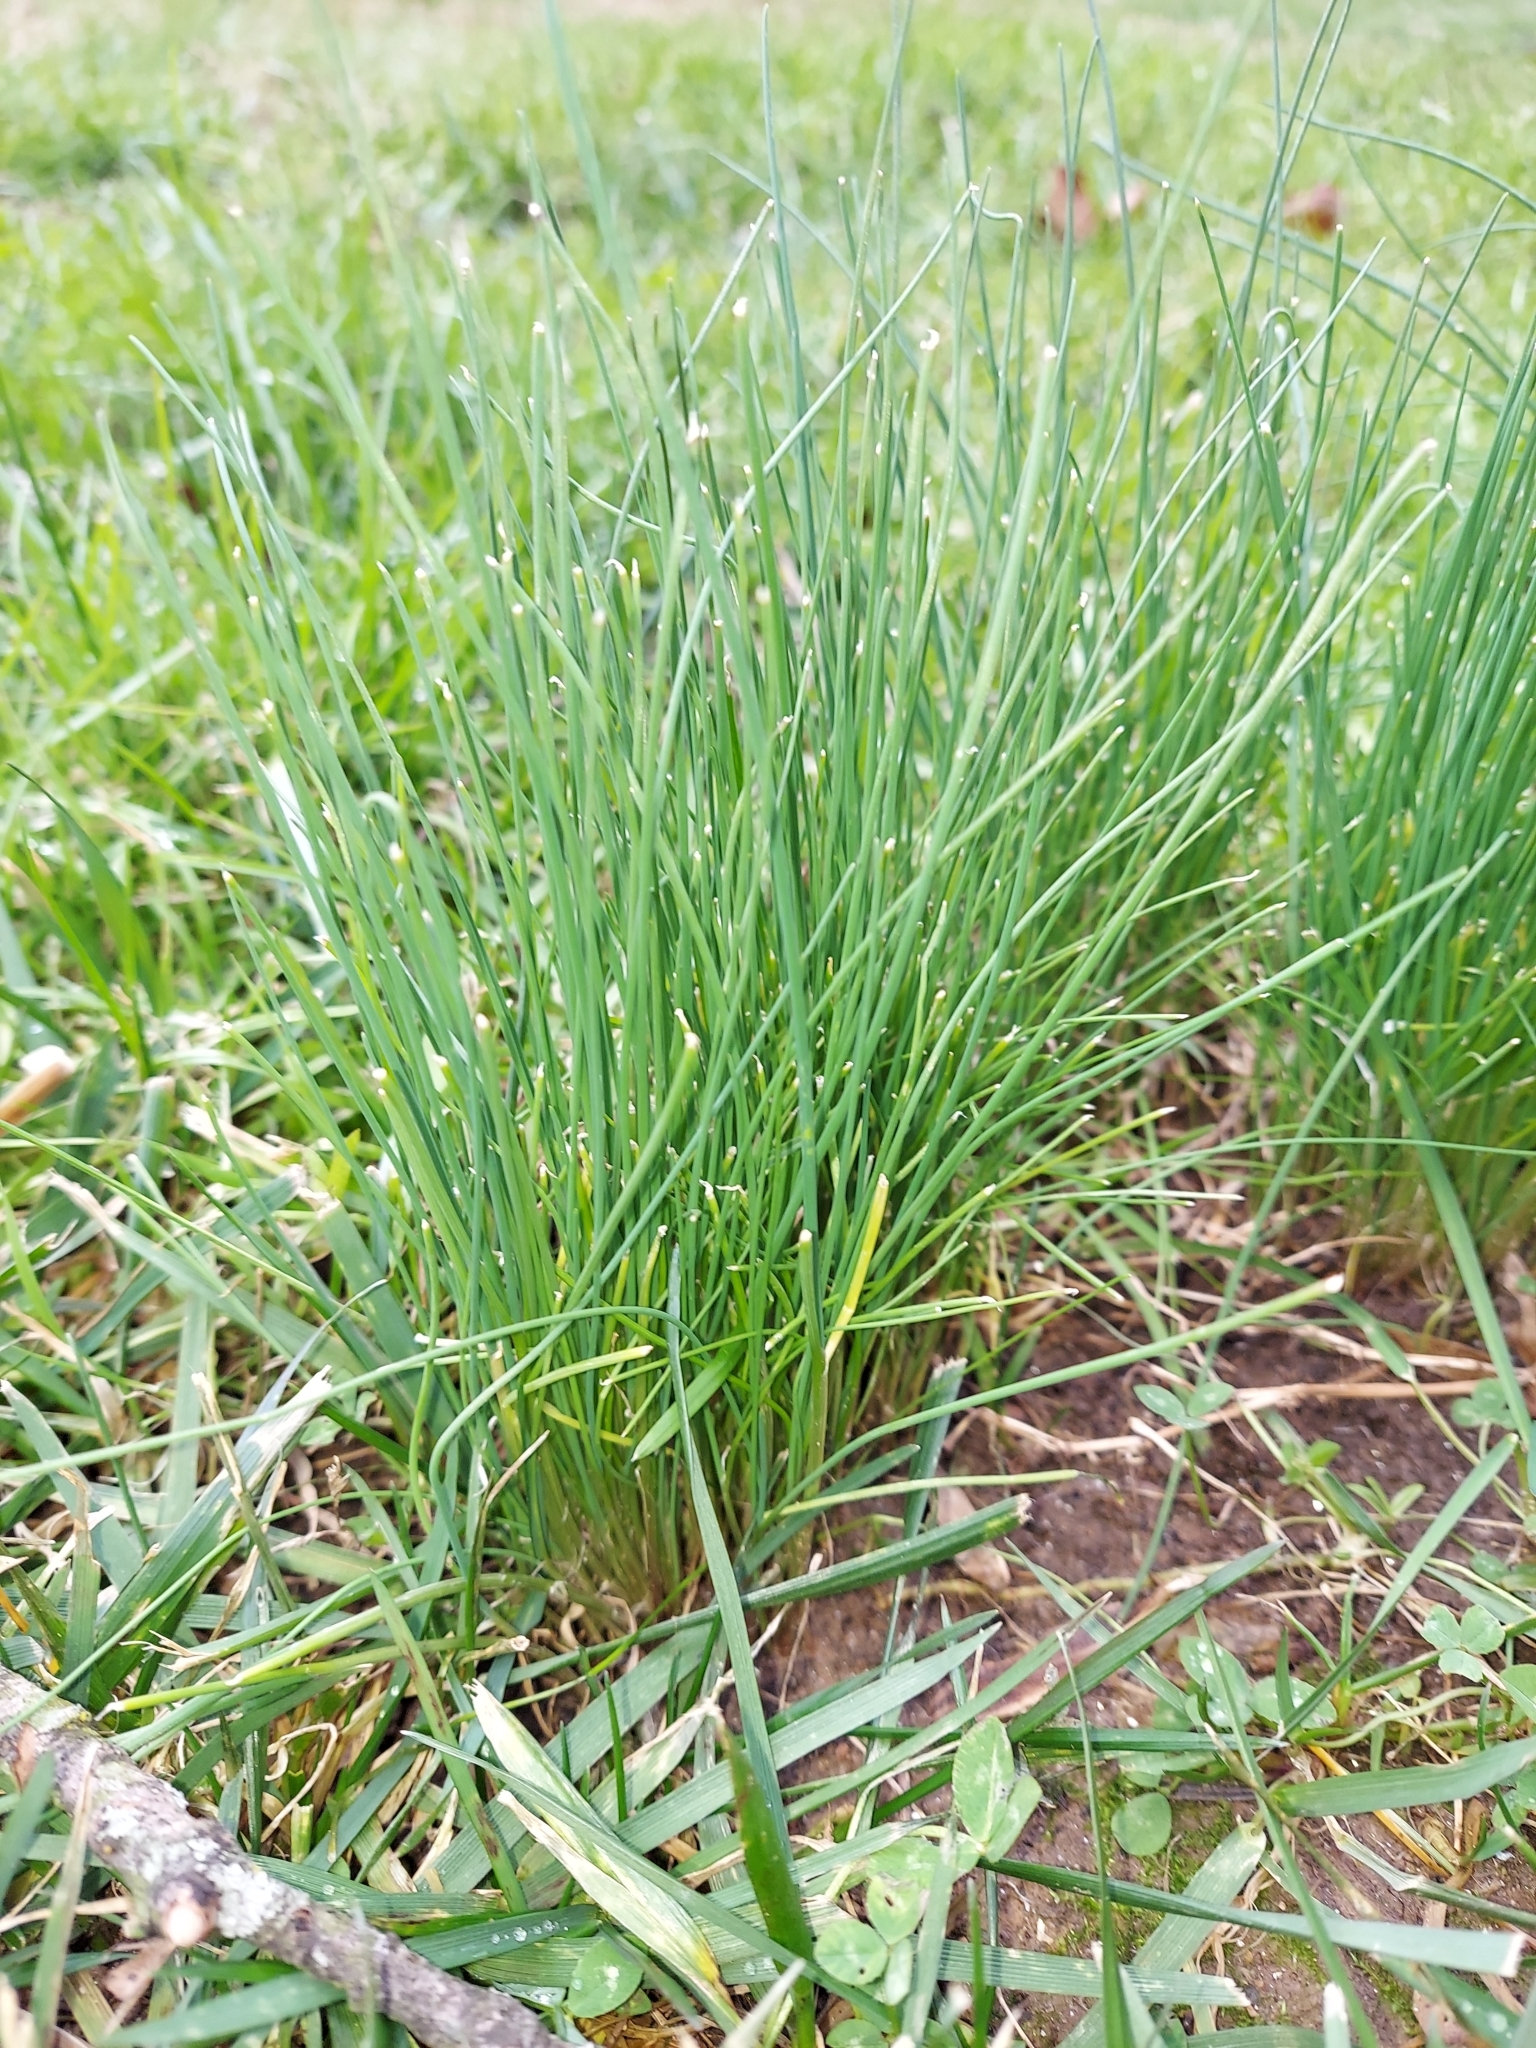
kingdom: Plantae
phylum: Tracheophyta
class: Liliopsida
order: Asparagales
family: Amaryllidaceae
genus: Allium
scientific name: Allium vineale
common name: Crow garlic
